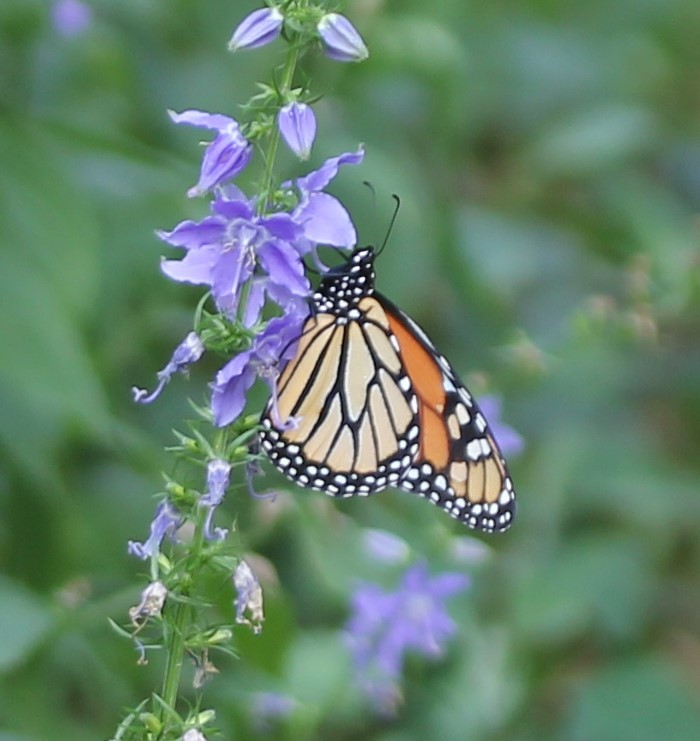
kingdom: Animalia
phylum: Arthropoda
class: Insecta
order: Lepidoptera
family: Nymphalidae
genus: Danaus
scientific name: Danaus plexippus
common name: Monarch
